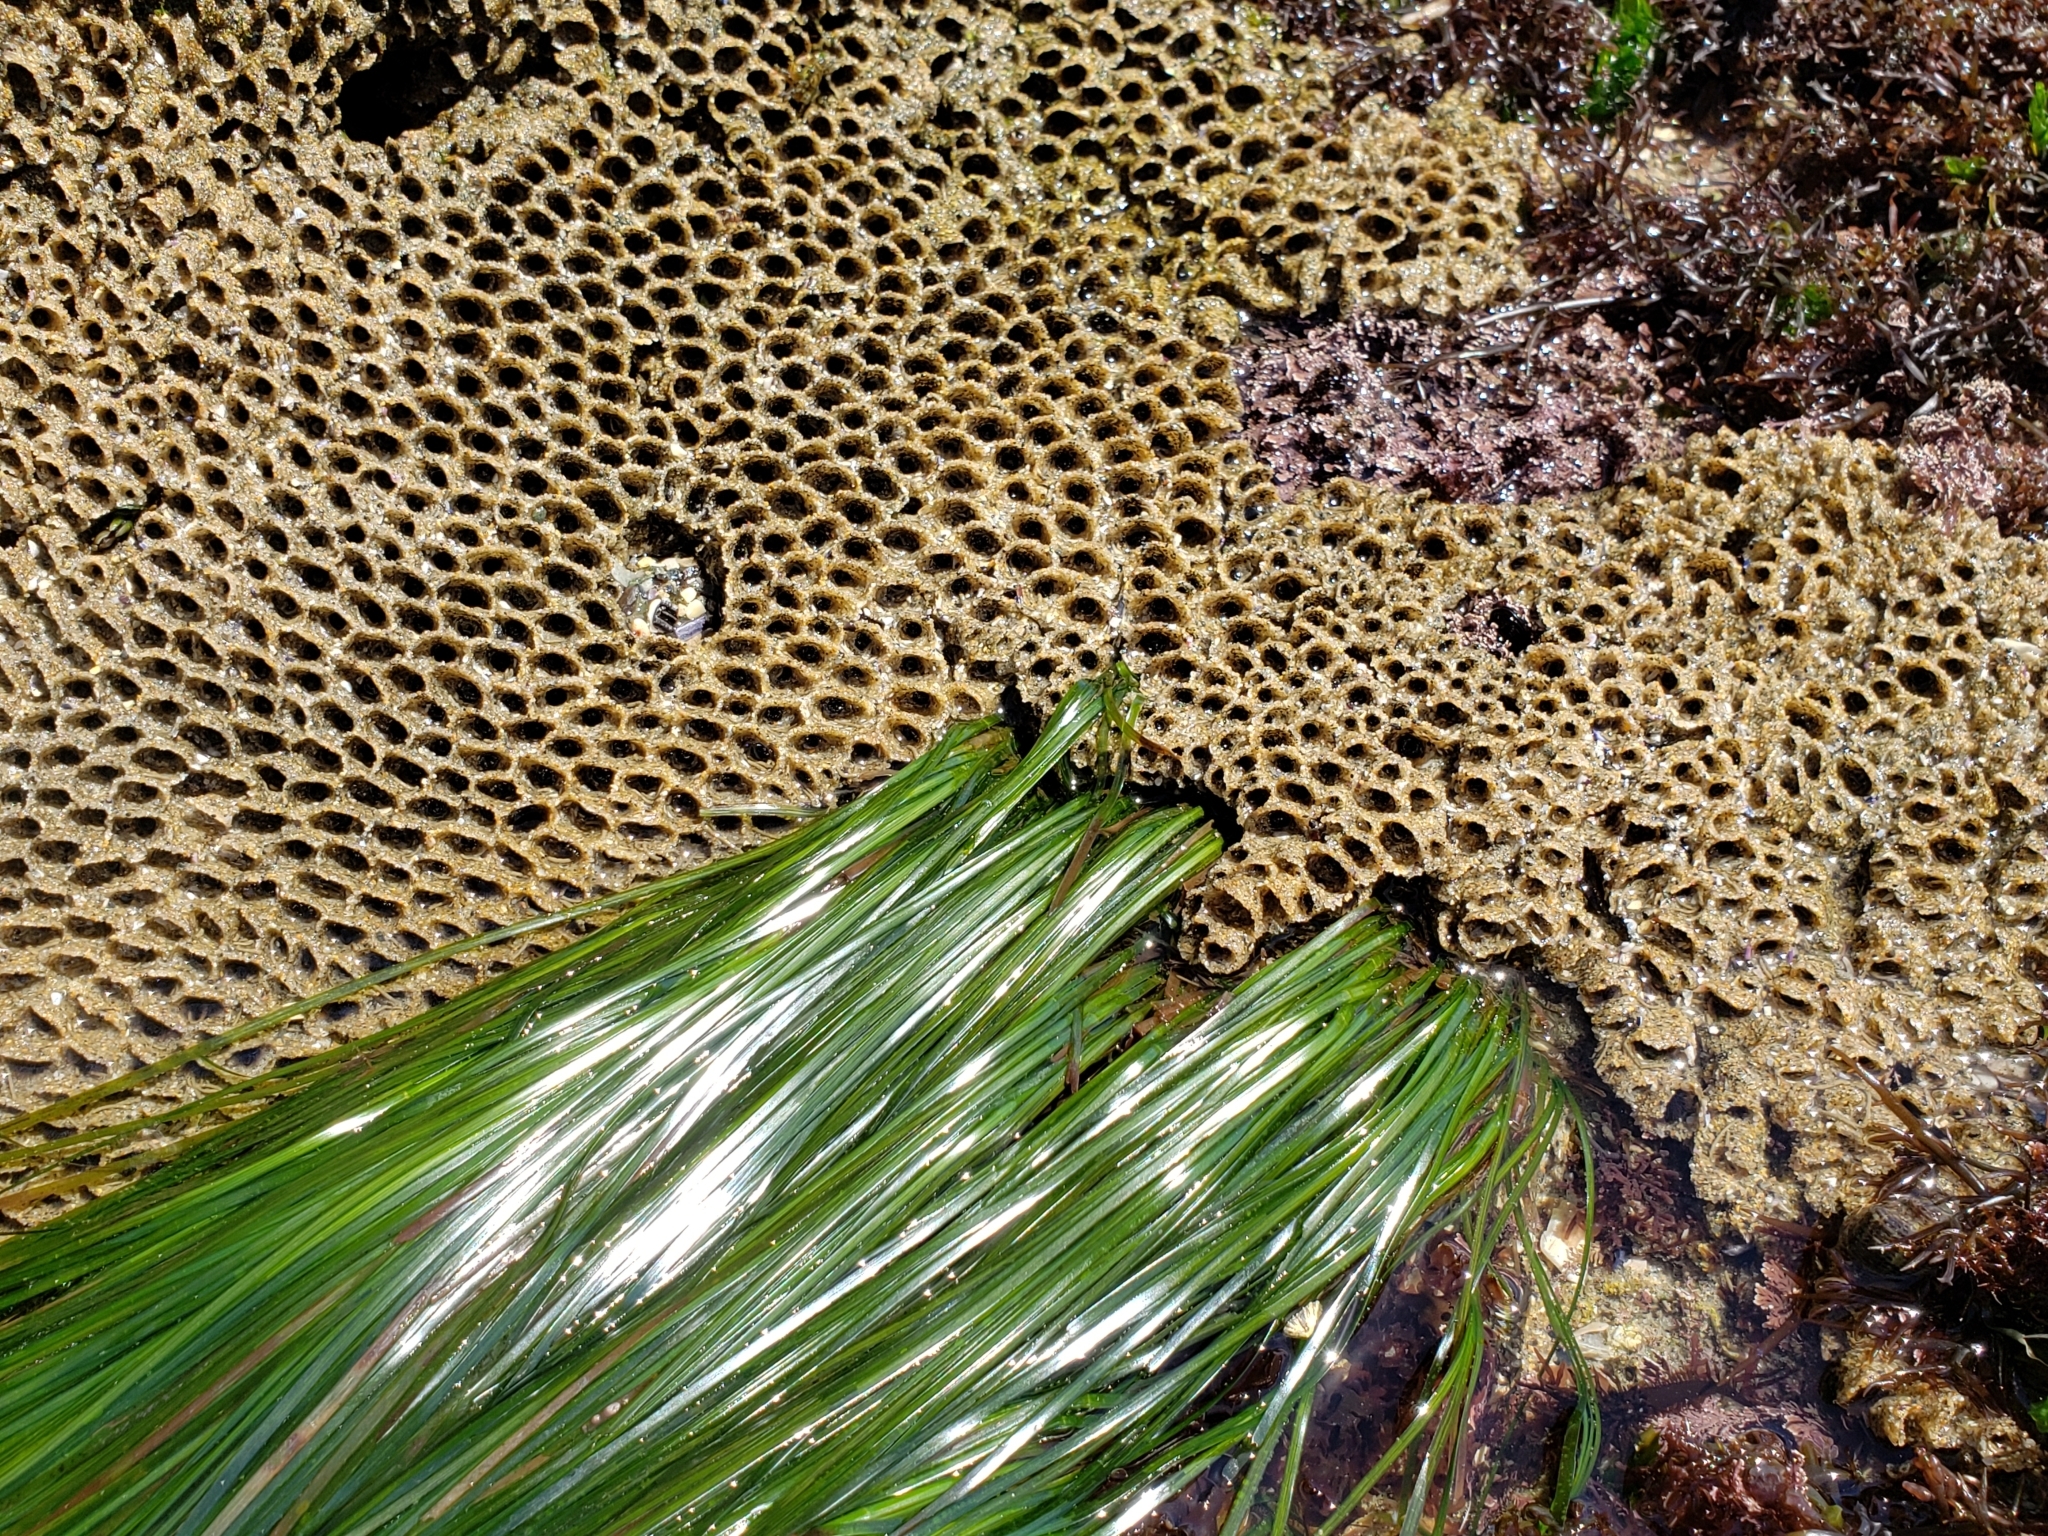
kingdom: Animalia
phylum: Annelida
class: Polychaeta
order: Sabellida
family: Sabellariidae
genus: Phragmatopoma
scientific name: Phragmatopoma californica
